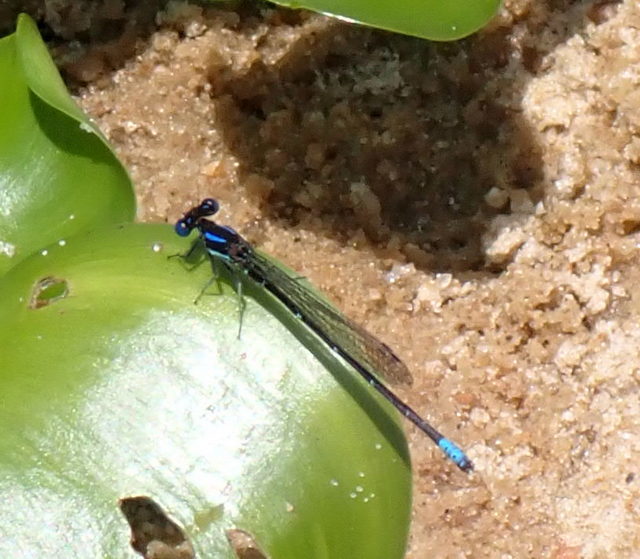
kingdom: Animalia
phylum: Arthropoda
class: Insecta
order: Odonata
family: Coenagrionidae
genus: Argia
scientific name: Argia sedula
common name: Blue-ringed dancer
